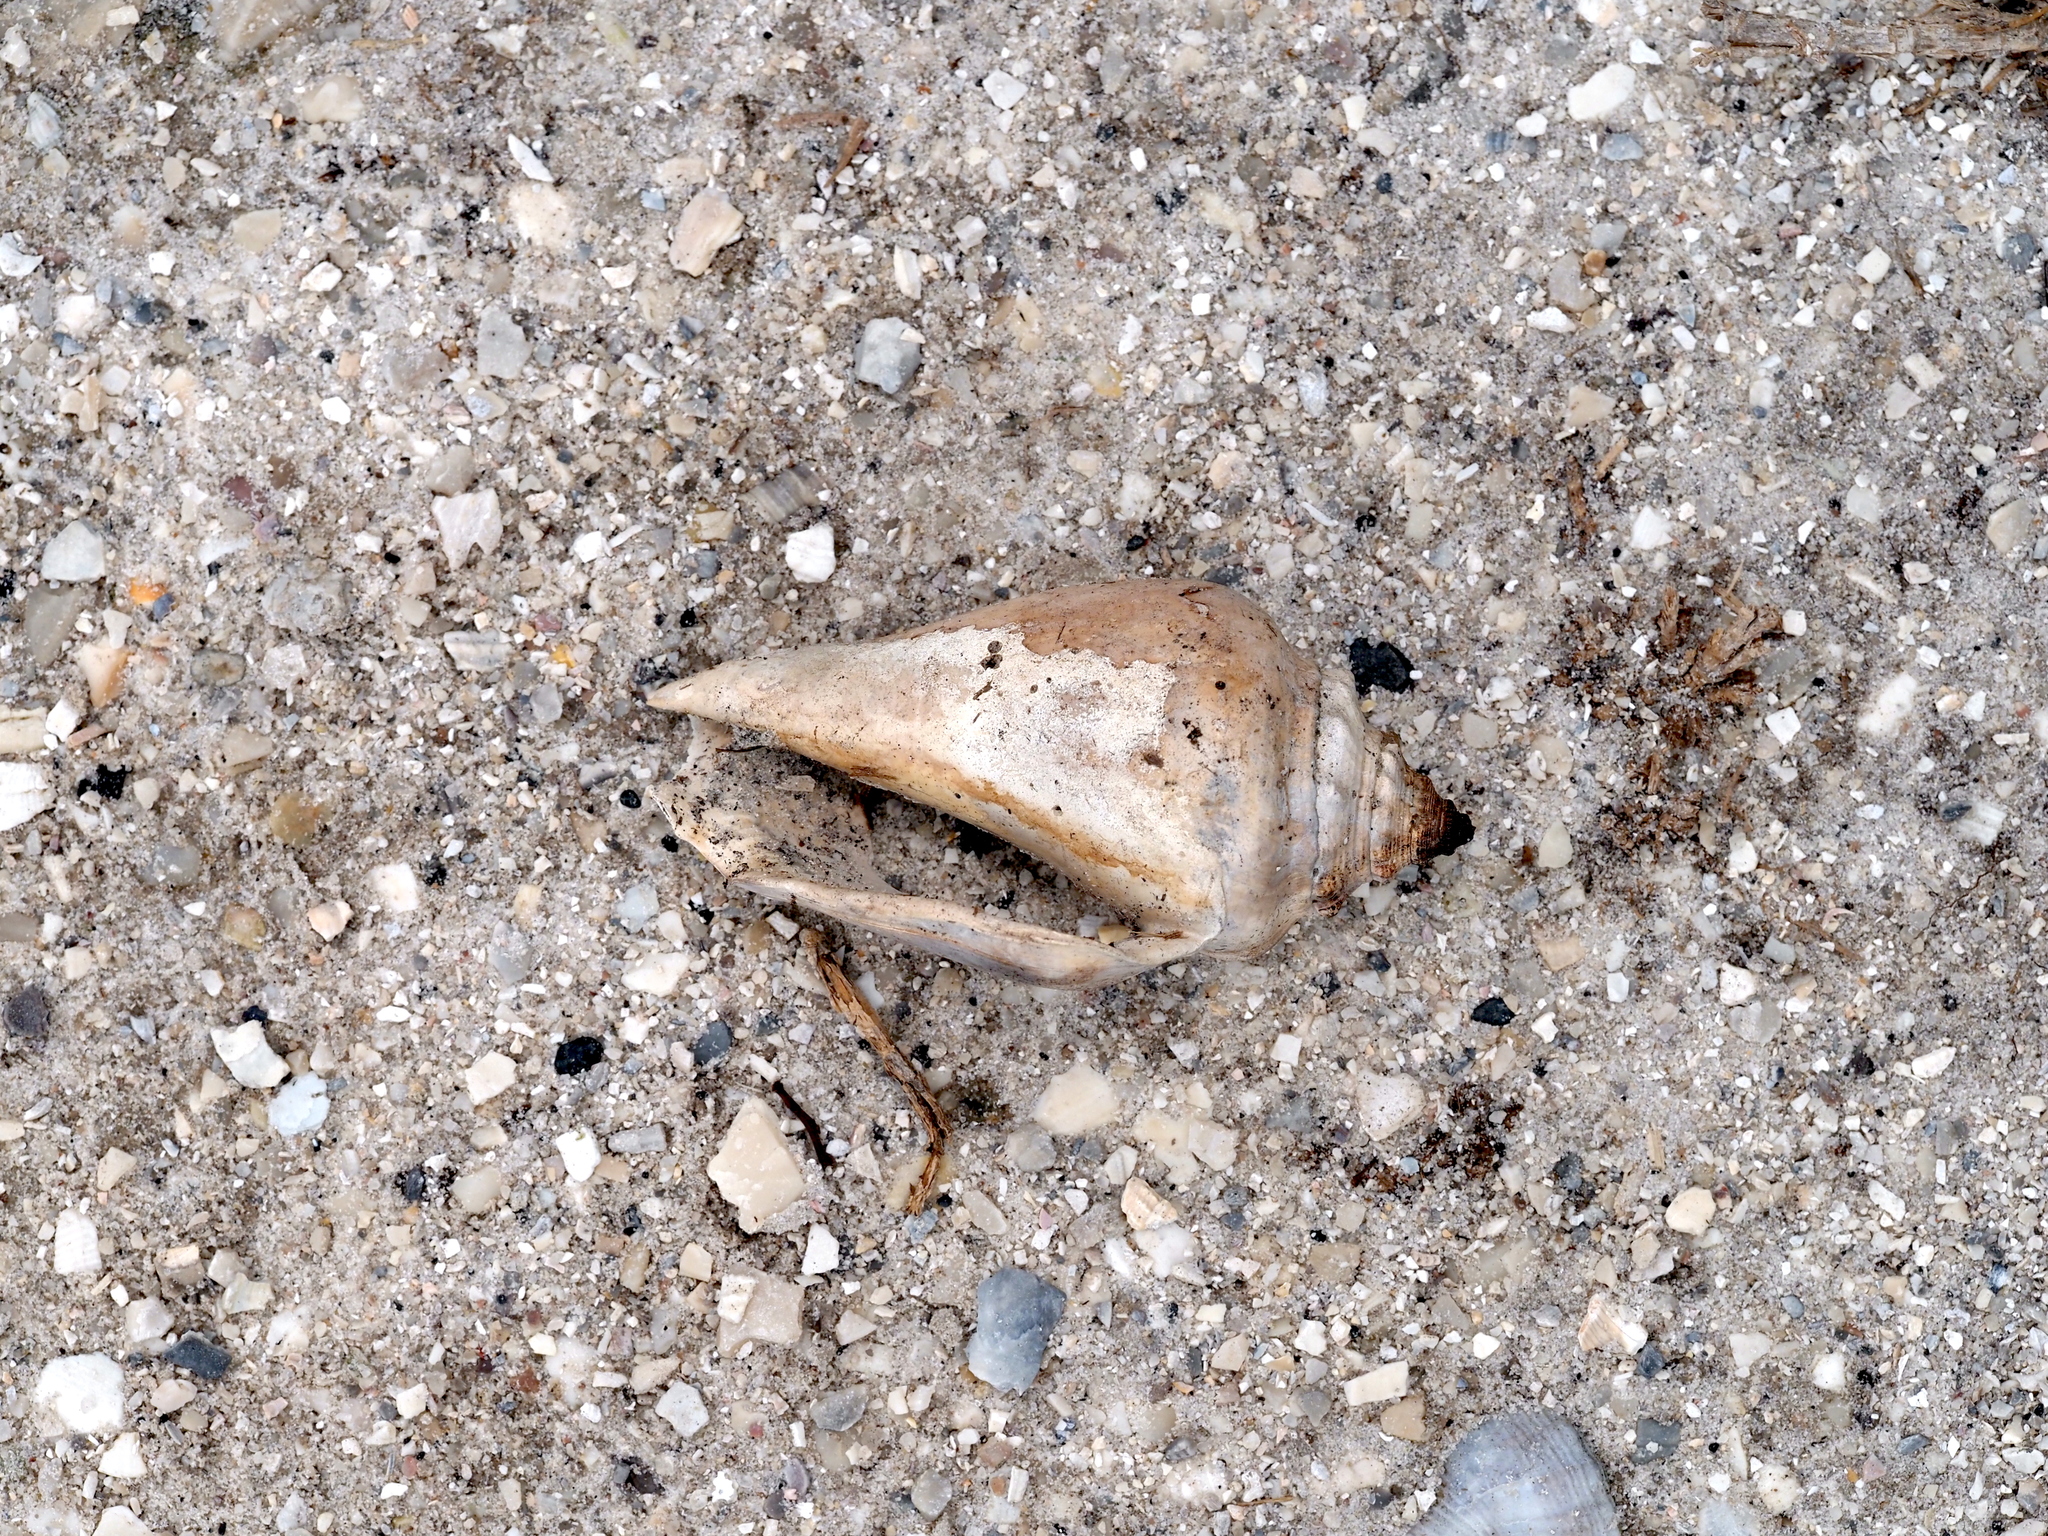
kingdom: Animalia
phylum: Mollusca
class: Gastropoda
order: Littorinimorpha
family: Strombidae
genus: Strombus
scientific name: Strombus alatus
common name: Florida fighting conch
